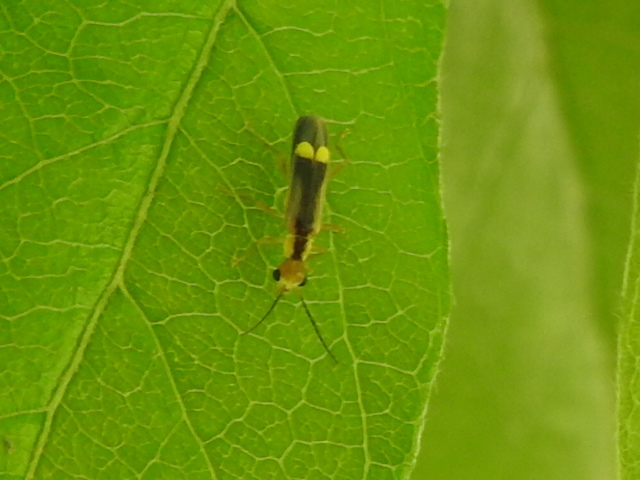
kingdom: Animalia
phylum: Arthropoda
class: Insecta
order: Coleoptera
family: Cantharidae
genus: Malthinus
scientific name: Malthinus occipitalis
